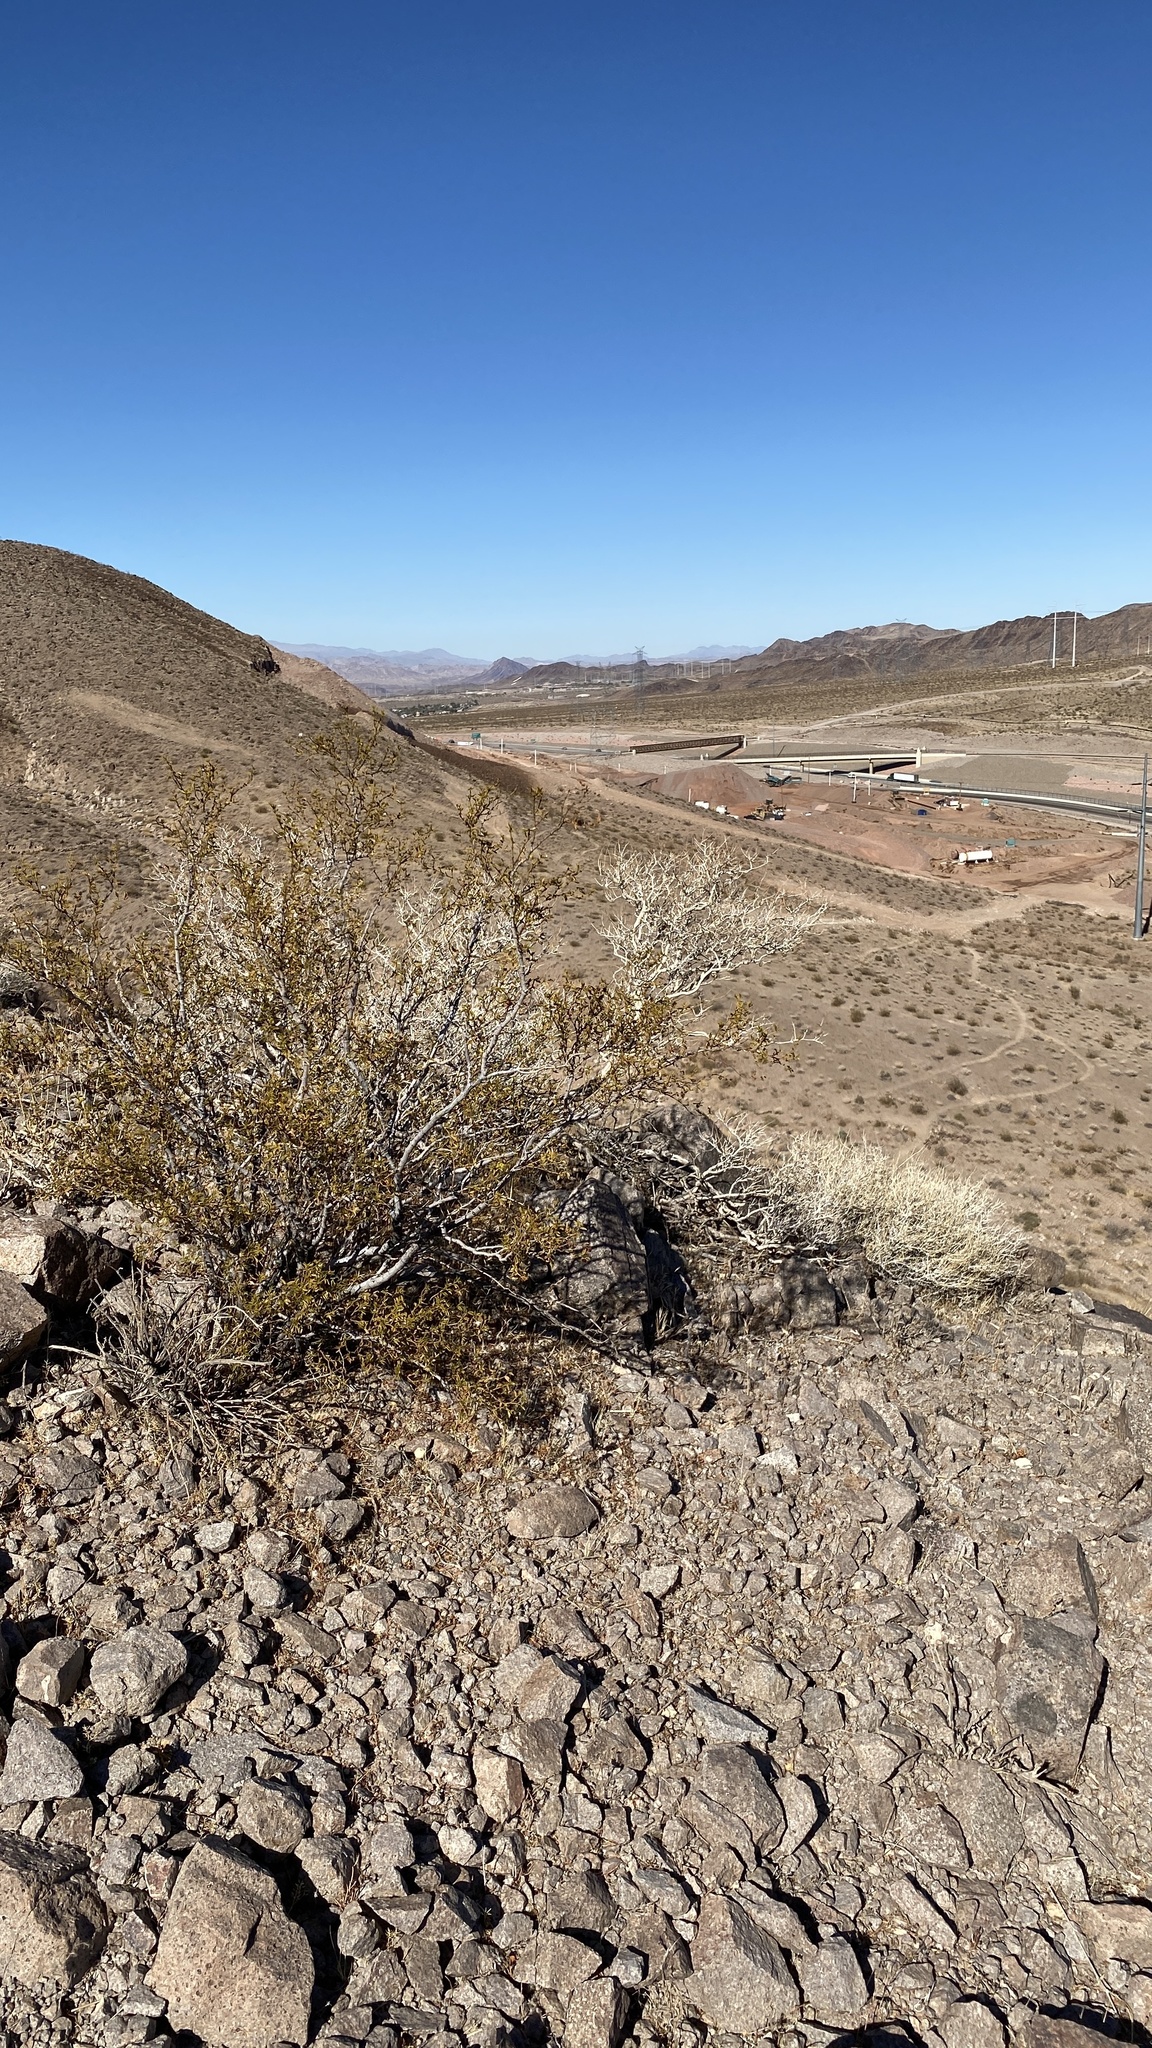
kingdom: Plantae
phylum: Tracheophyta
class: Magnoliopsida
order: Zygophyllales
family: Zygophyllaceae
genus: Larrea
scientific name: Larrea tridentata
